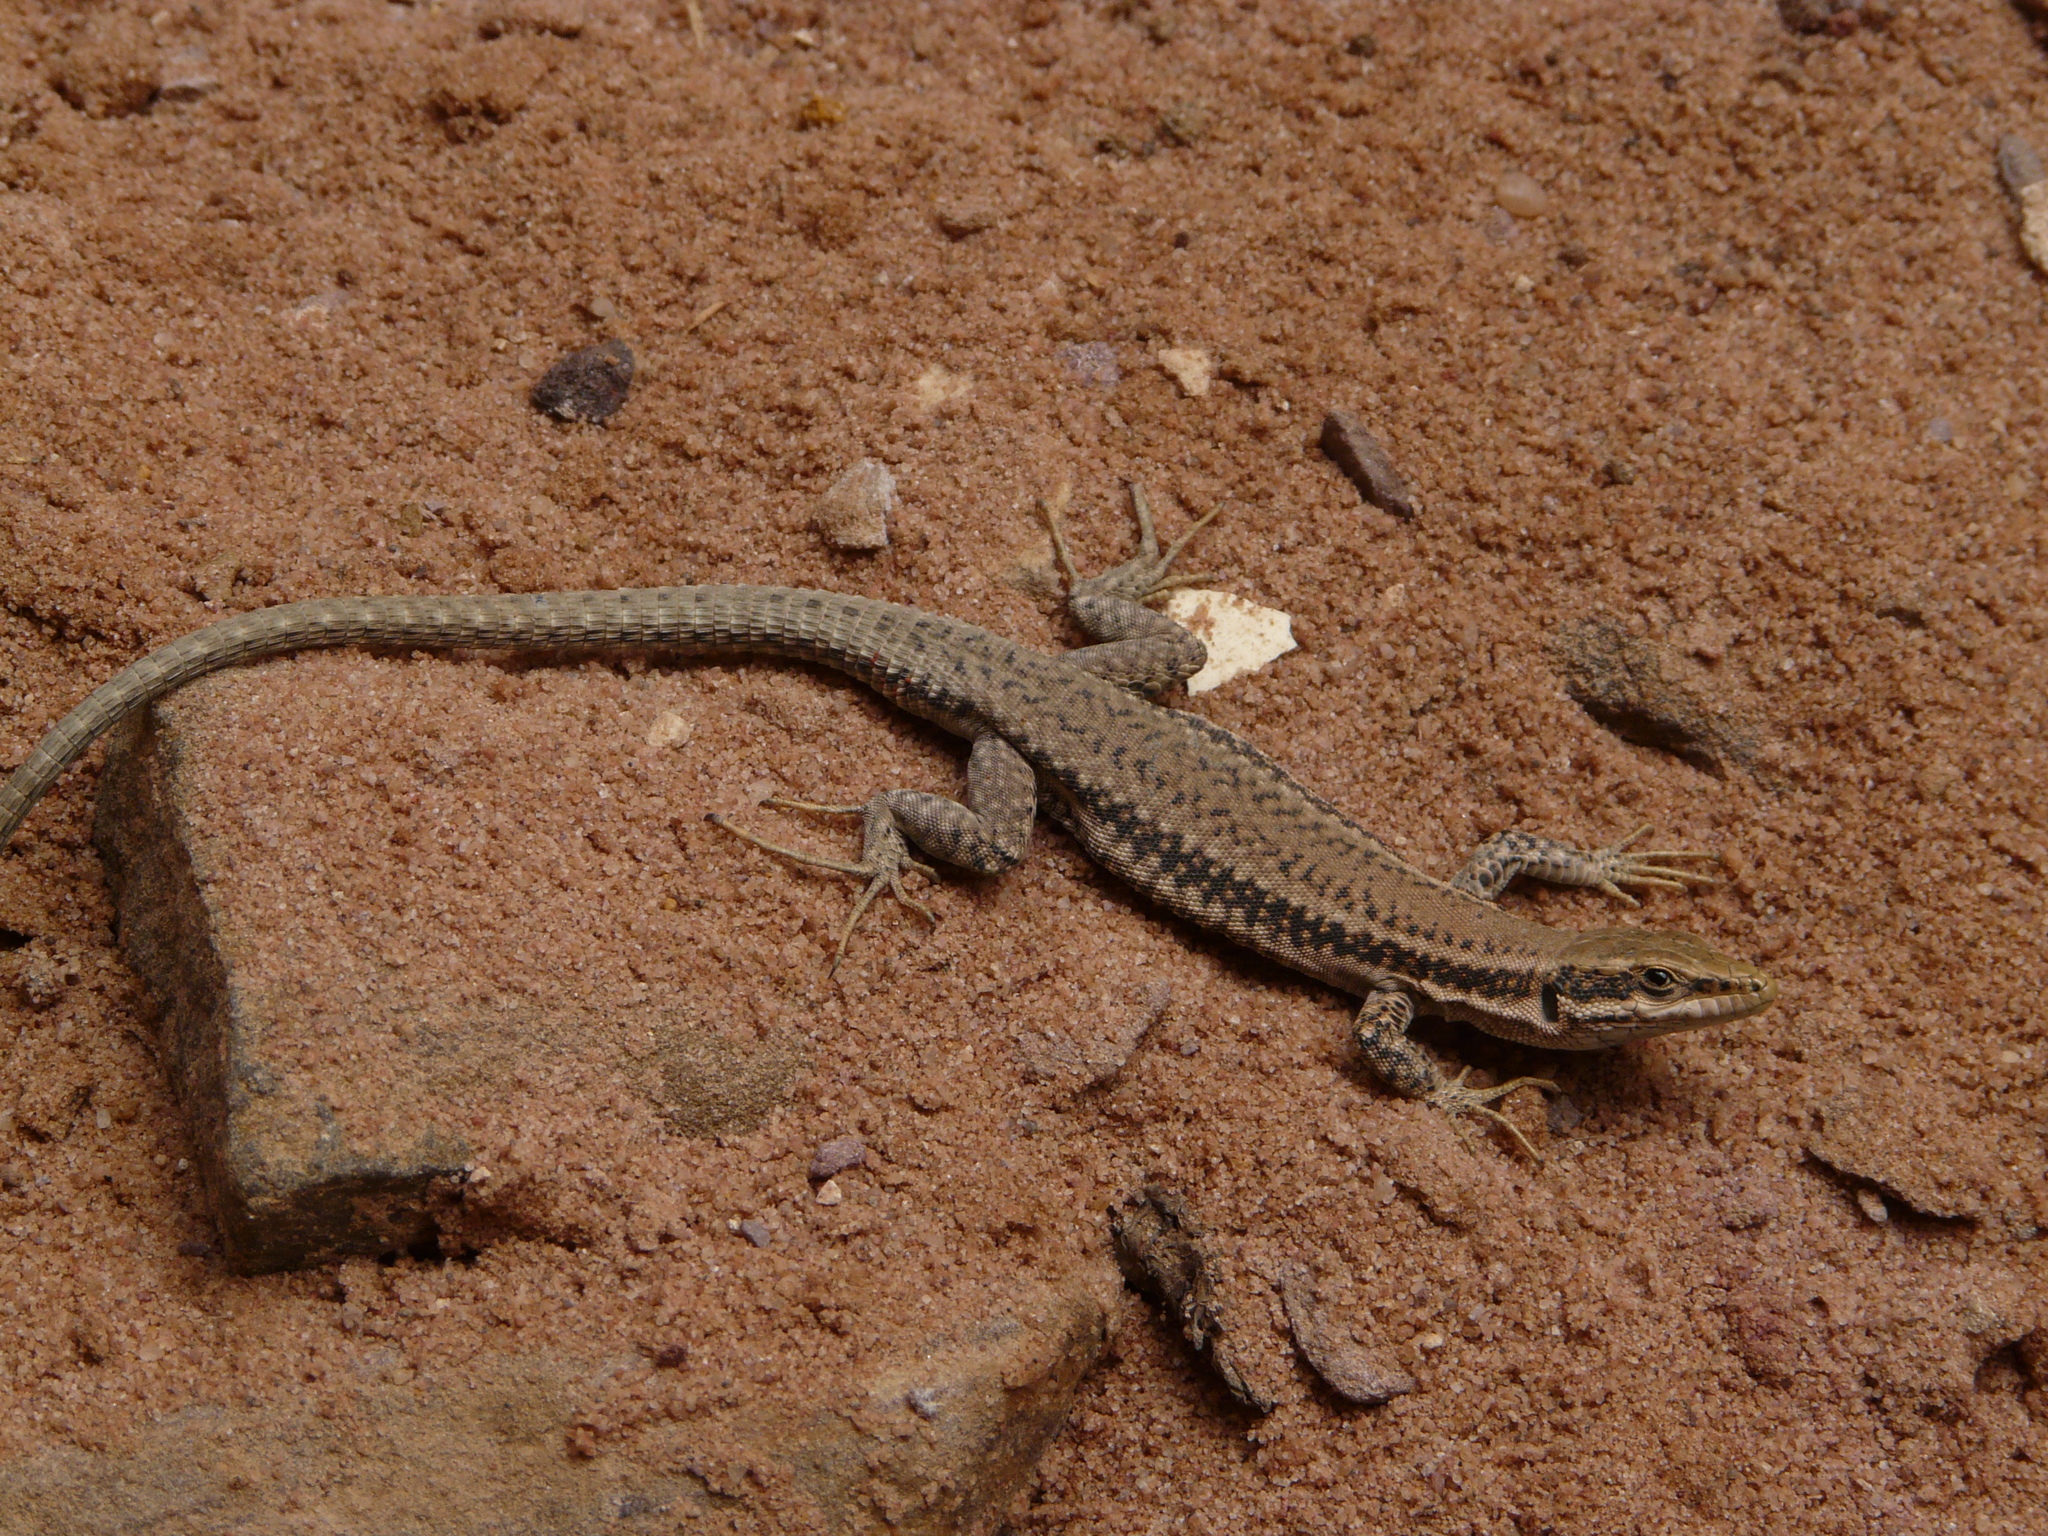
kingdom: Animalia
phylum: Chordata
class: Squamata
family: Lacertidae
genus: Phoenicolacerta
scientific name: Phoenicolacerta kulzeri
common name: Kulzer’s rock lizard
